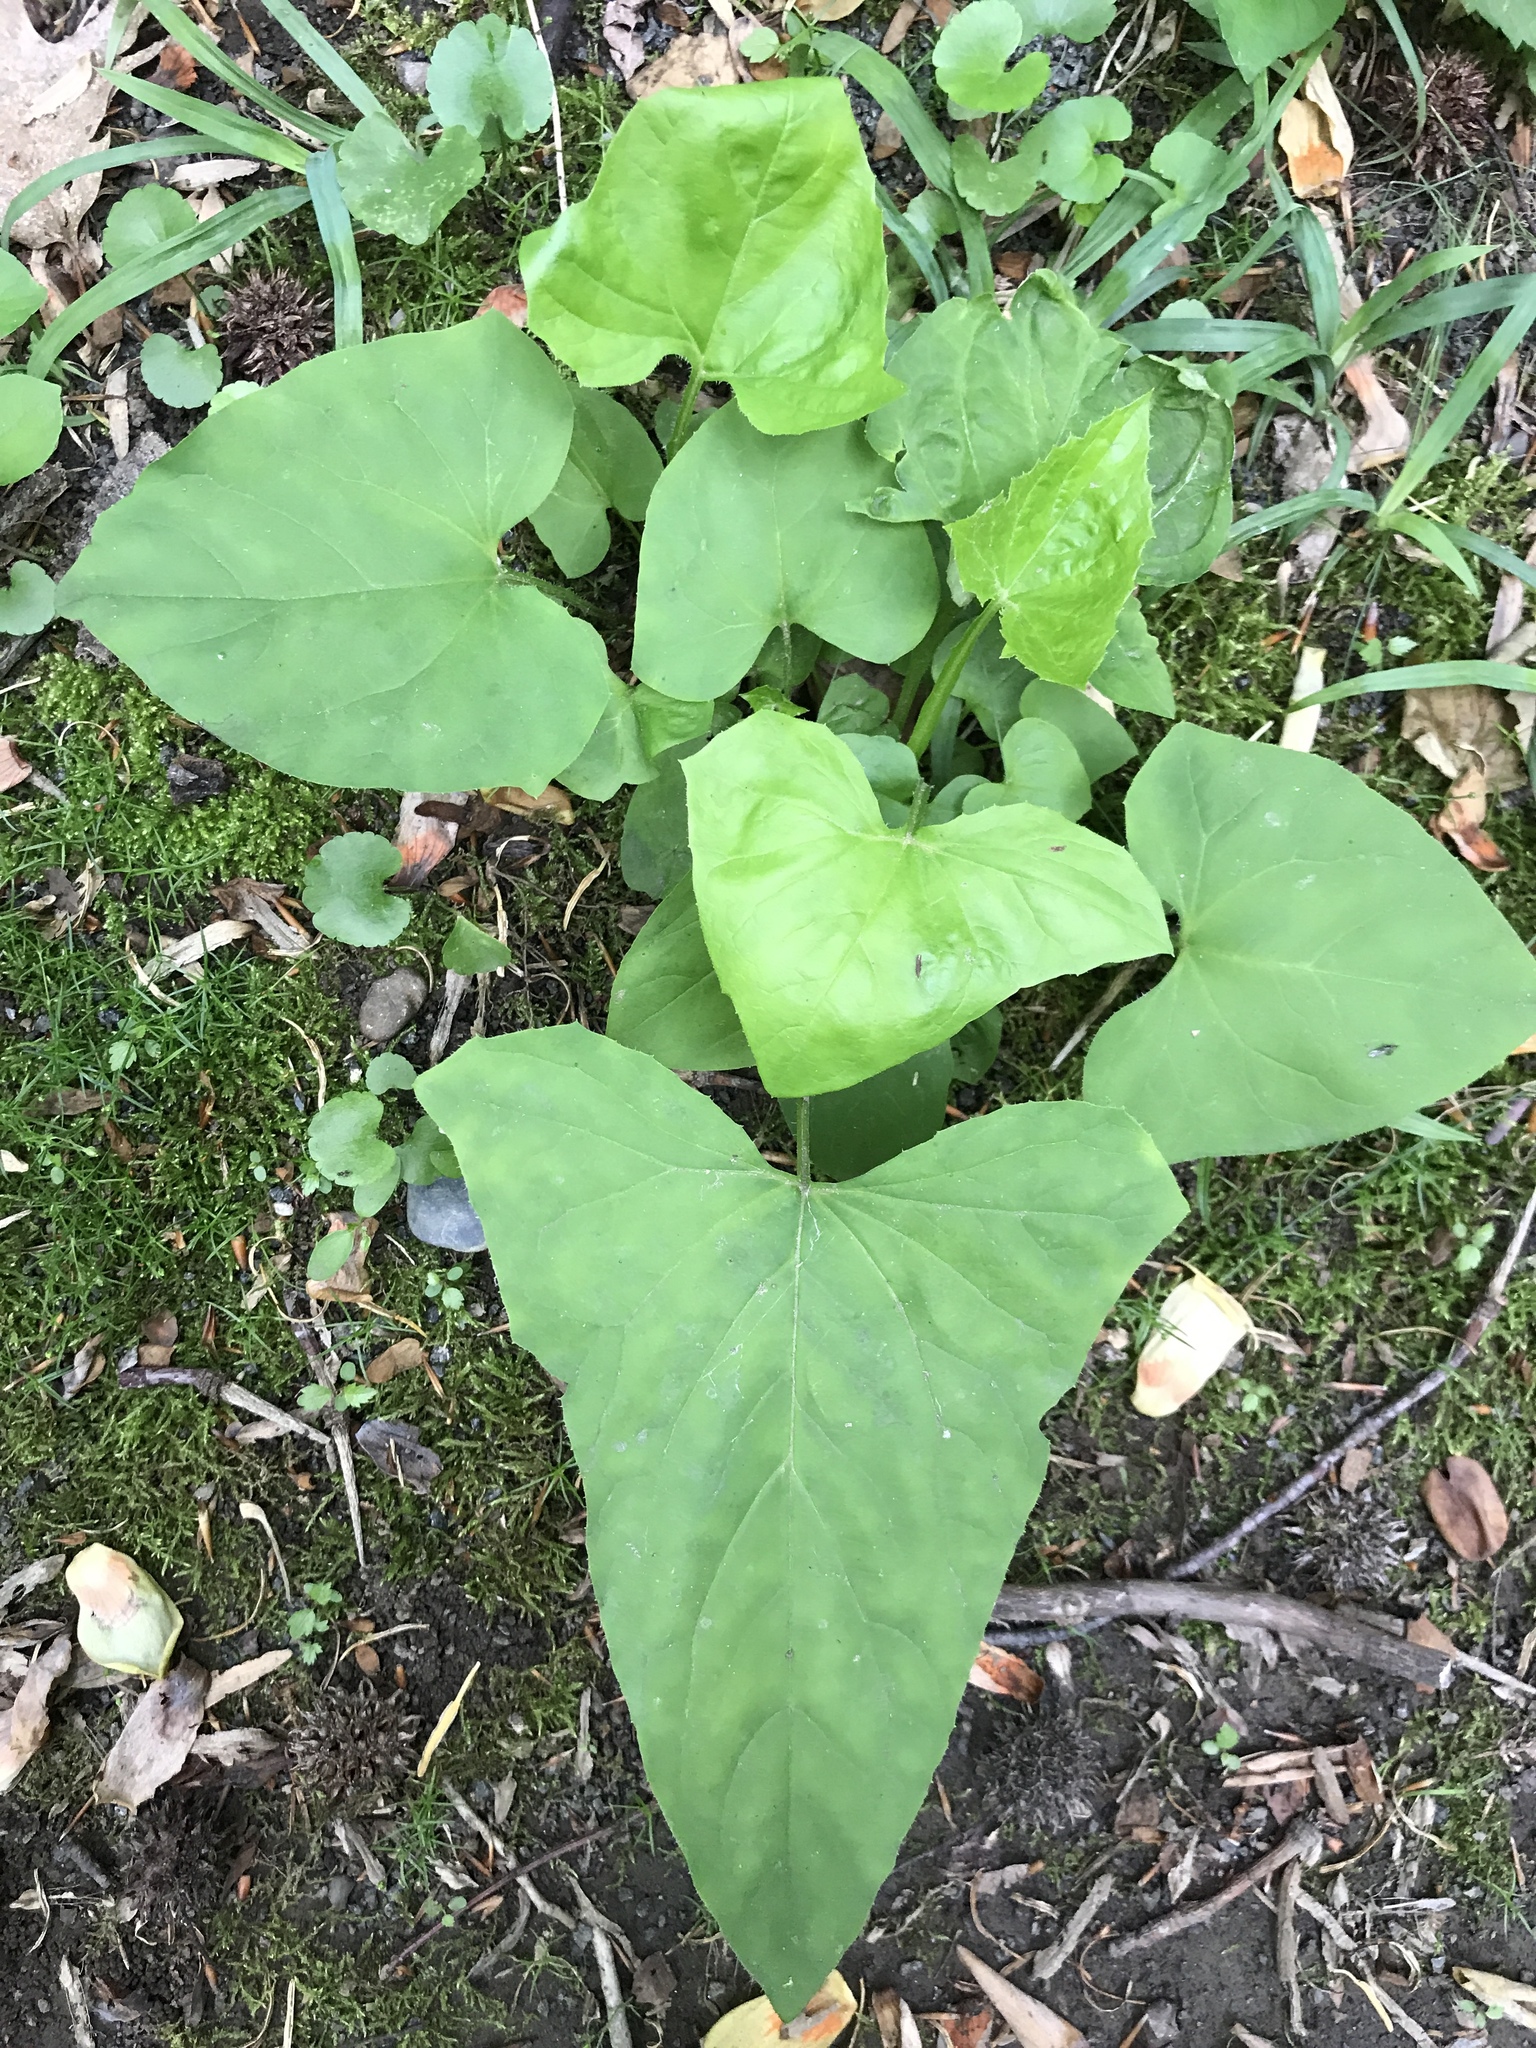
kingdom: Plantae
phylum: Tracheophyta
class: Magnoliopsida
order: Asterales
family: Asteraceae
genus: Nabalus
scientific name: Nabalus
